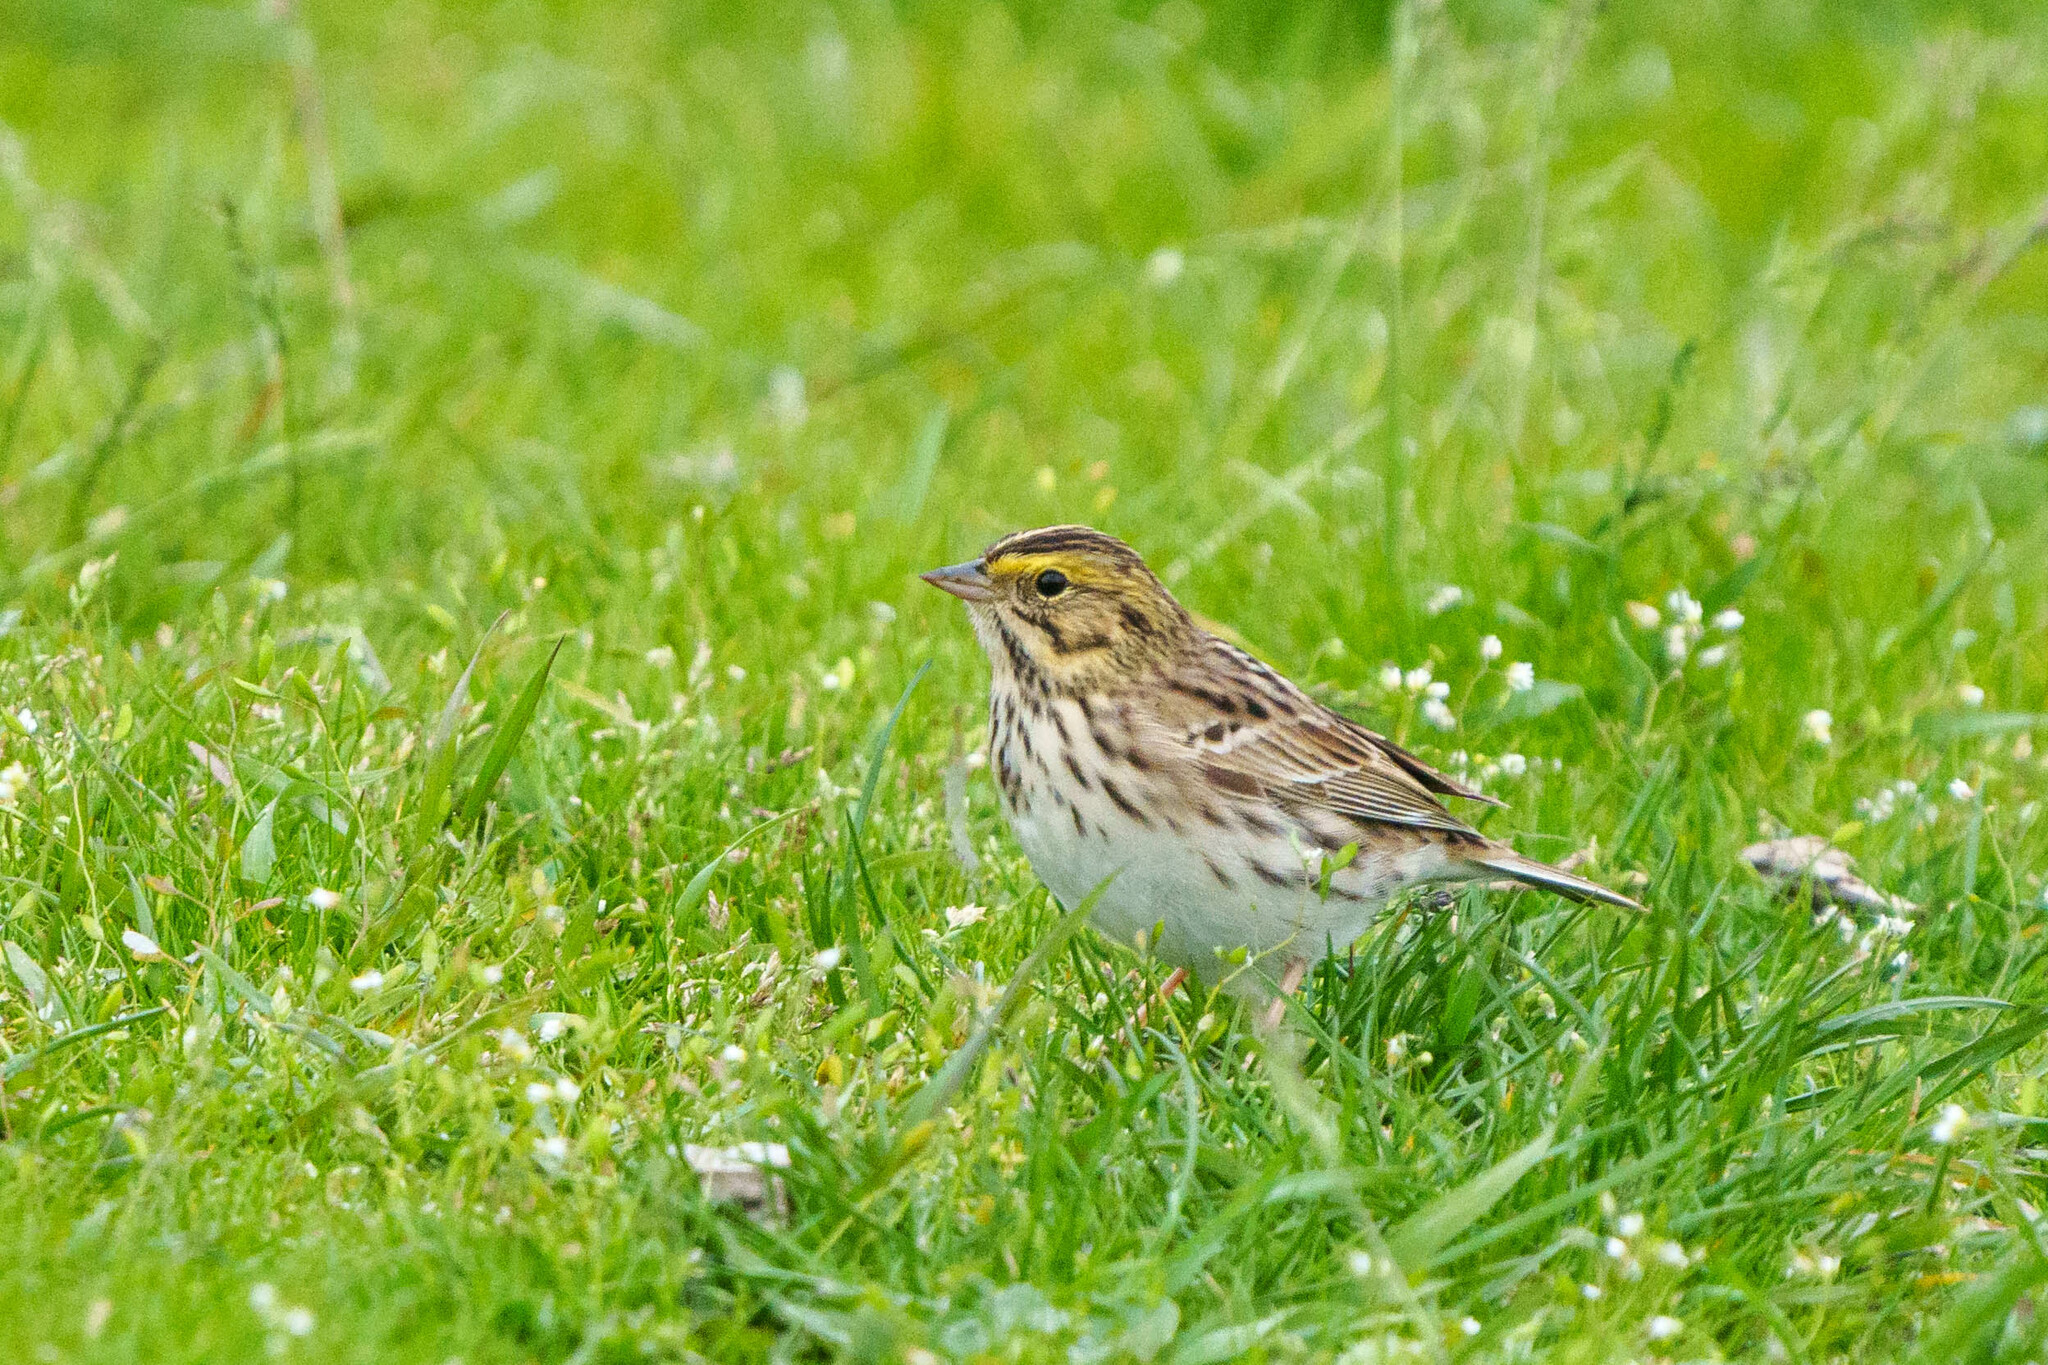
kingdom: Animalia
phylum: Chordata
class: Aves
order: Passeriformes
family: Passerellidae
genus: Passerculus
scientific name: Passerculus sandwichensis
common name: Savannah sparrow
